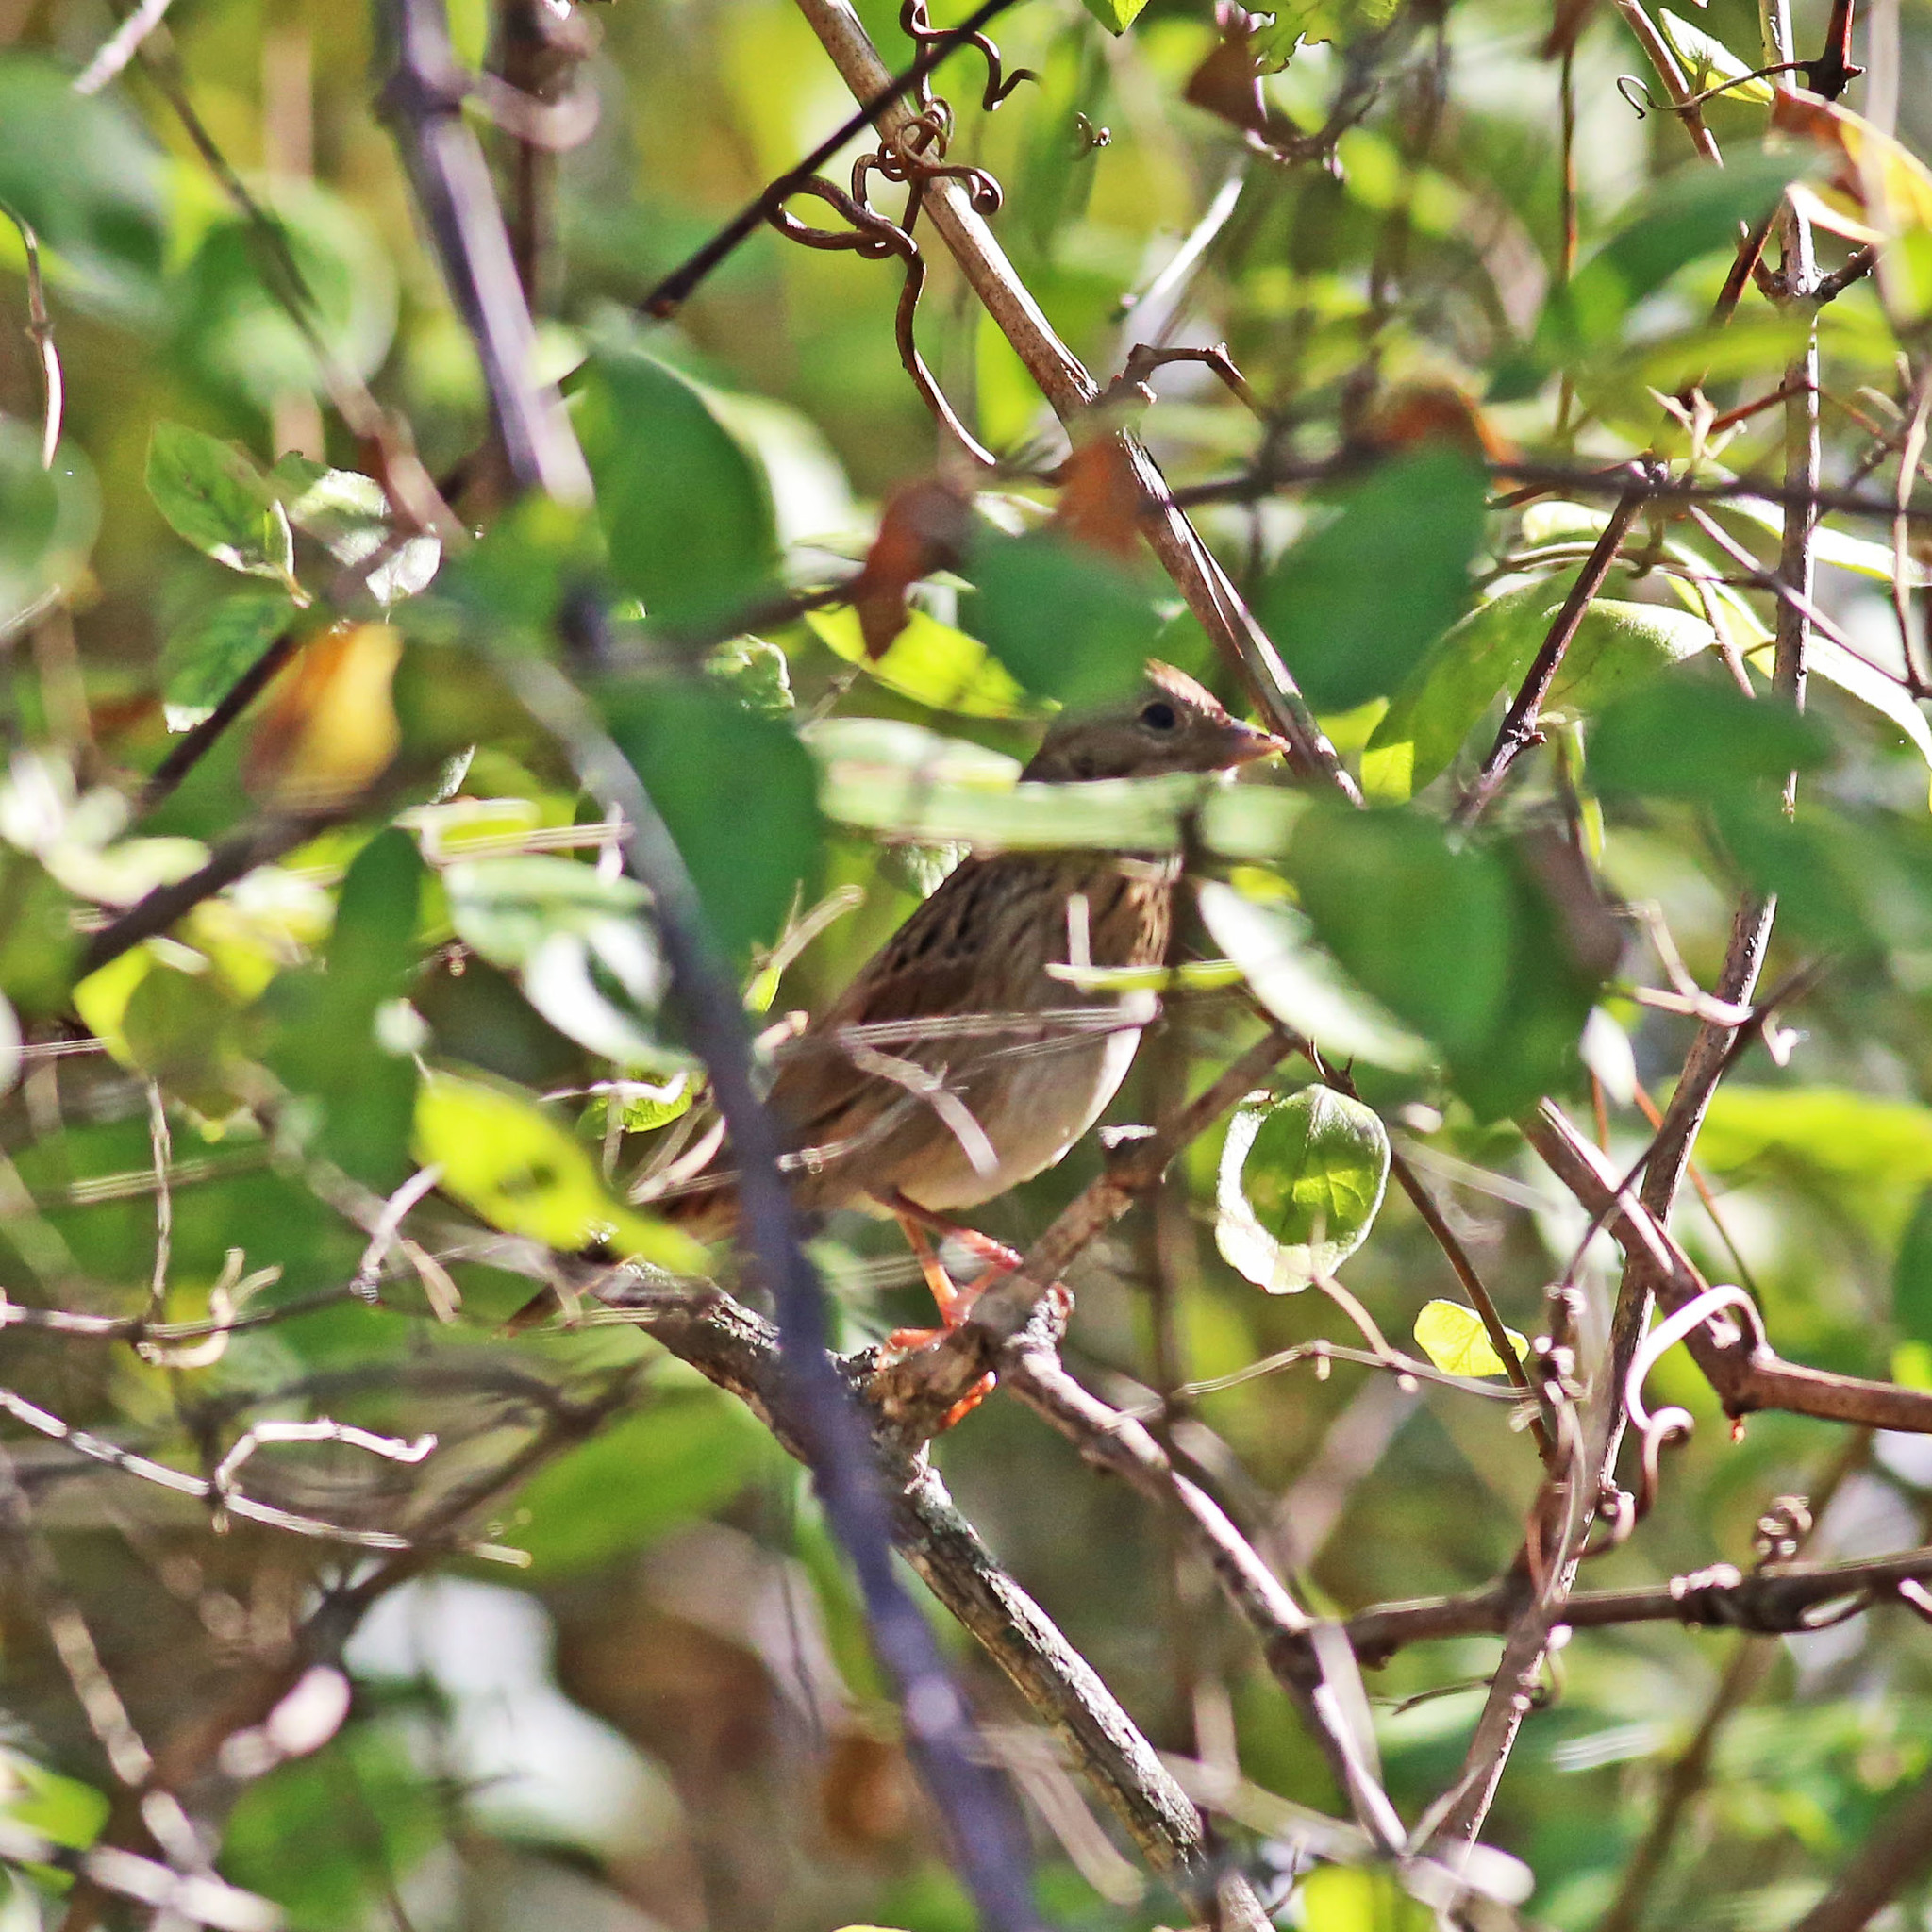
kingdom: Animalia
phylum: Chordata
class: Aves
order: Passeriformes
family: Passerellidae
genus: Melospiza
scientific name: Melospiza lincolnii
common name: Lincoln's sparrow
